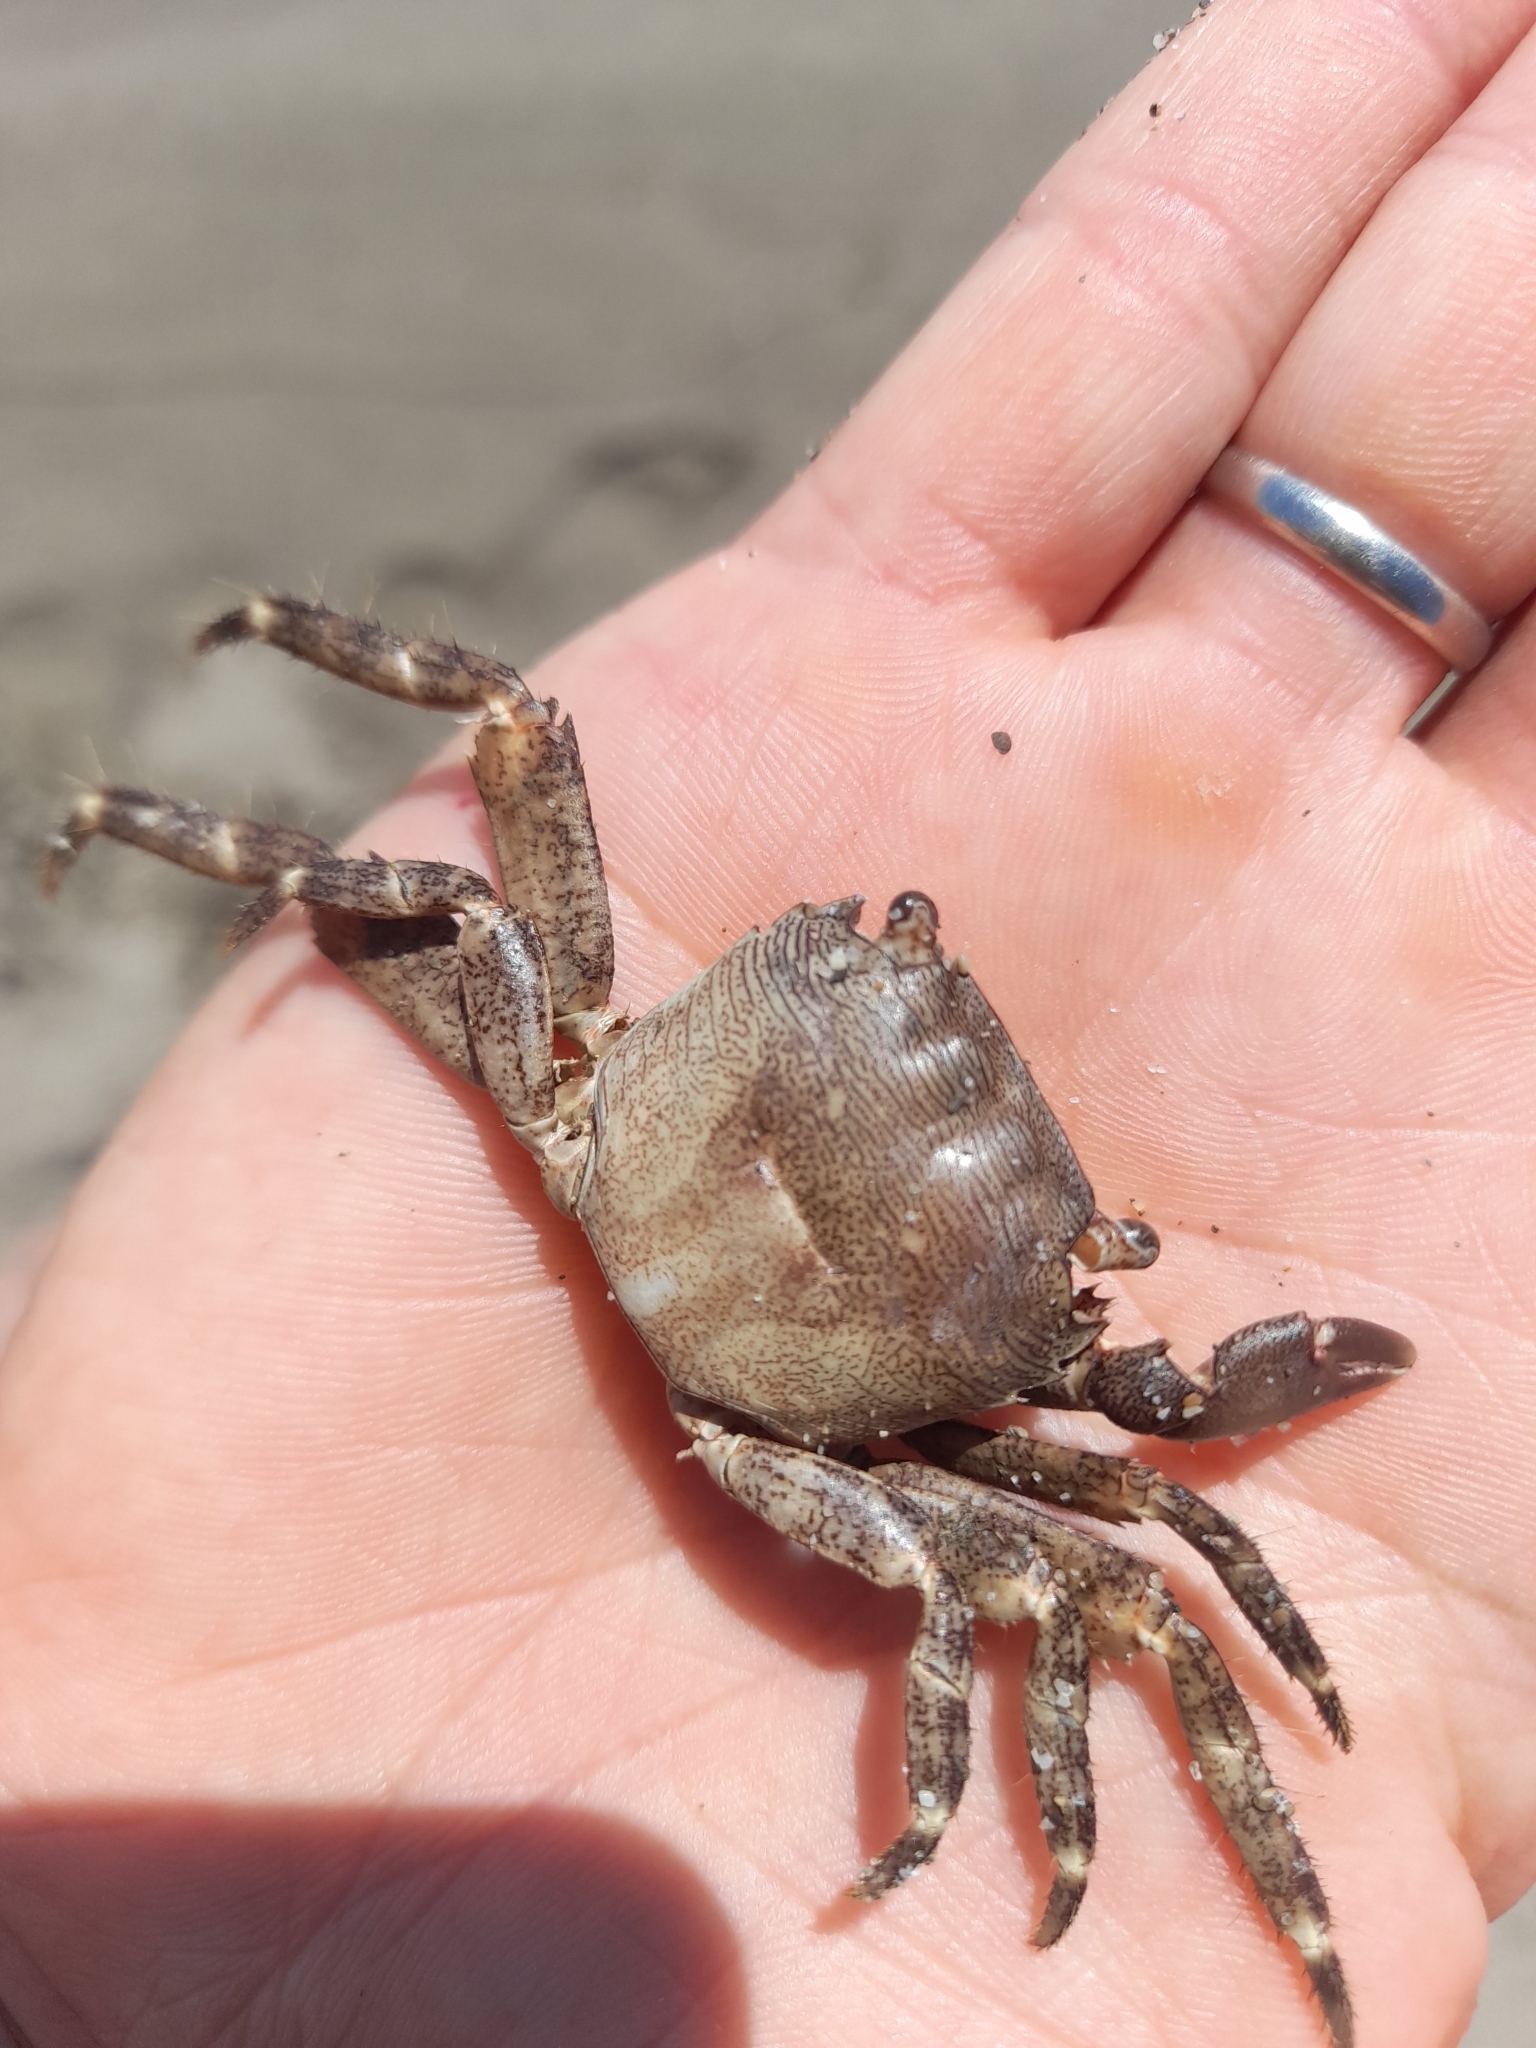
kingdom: Animalia
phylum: Arthropoda
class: Malacostraca
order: Decapoda
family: Grapsidae
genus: Pachygrapsus
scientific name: Pachygrapsus marmoratus
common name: Marbled rock crab
